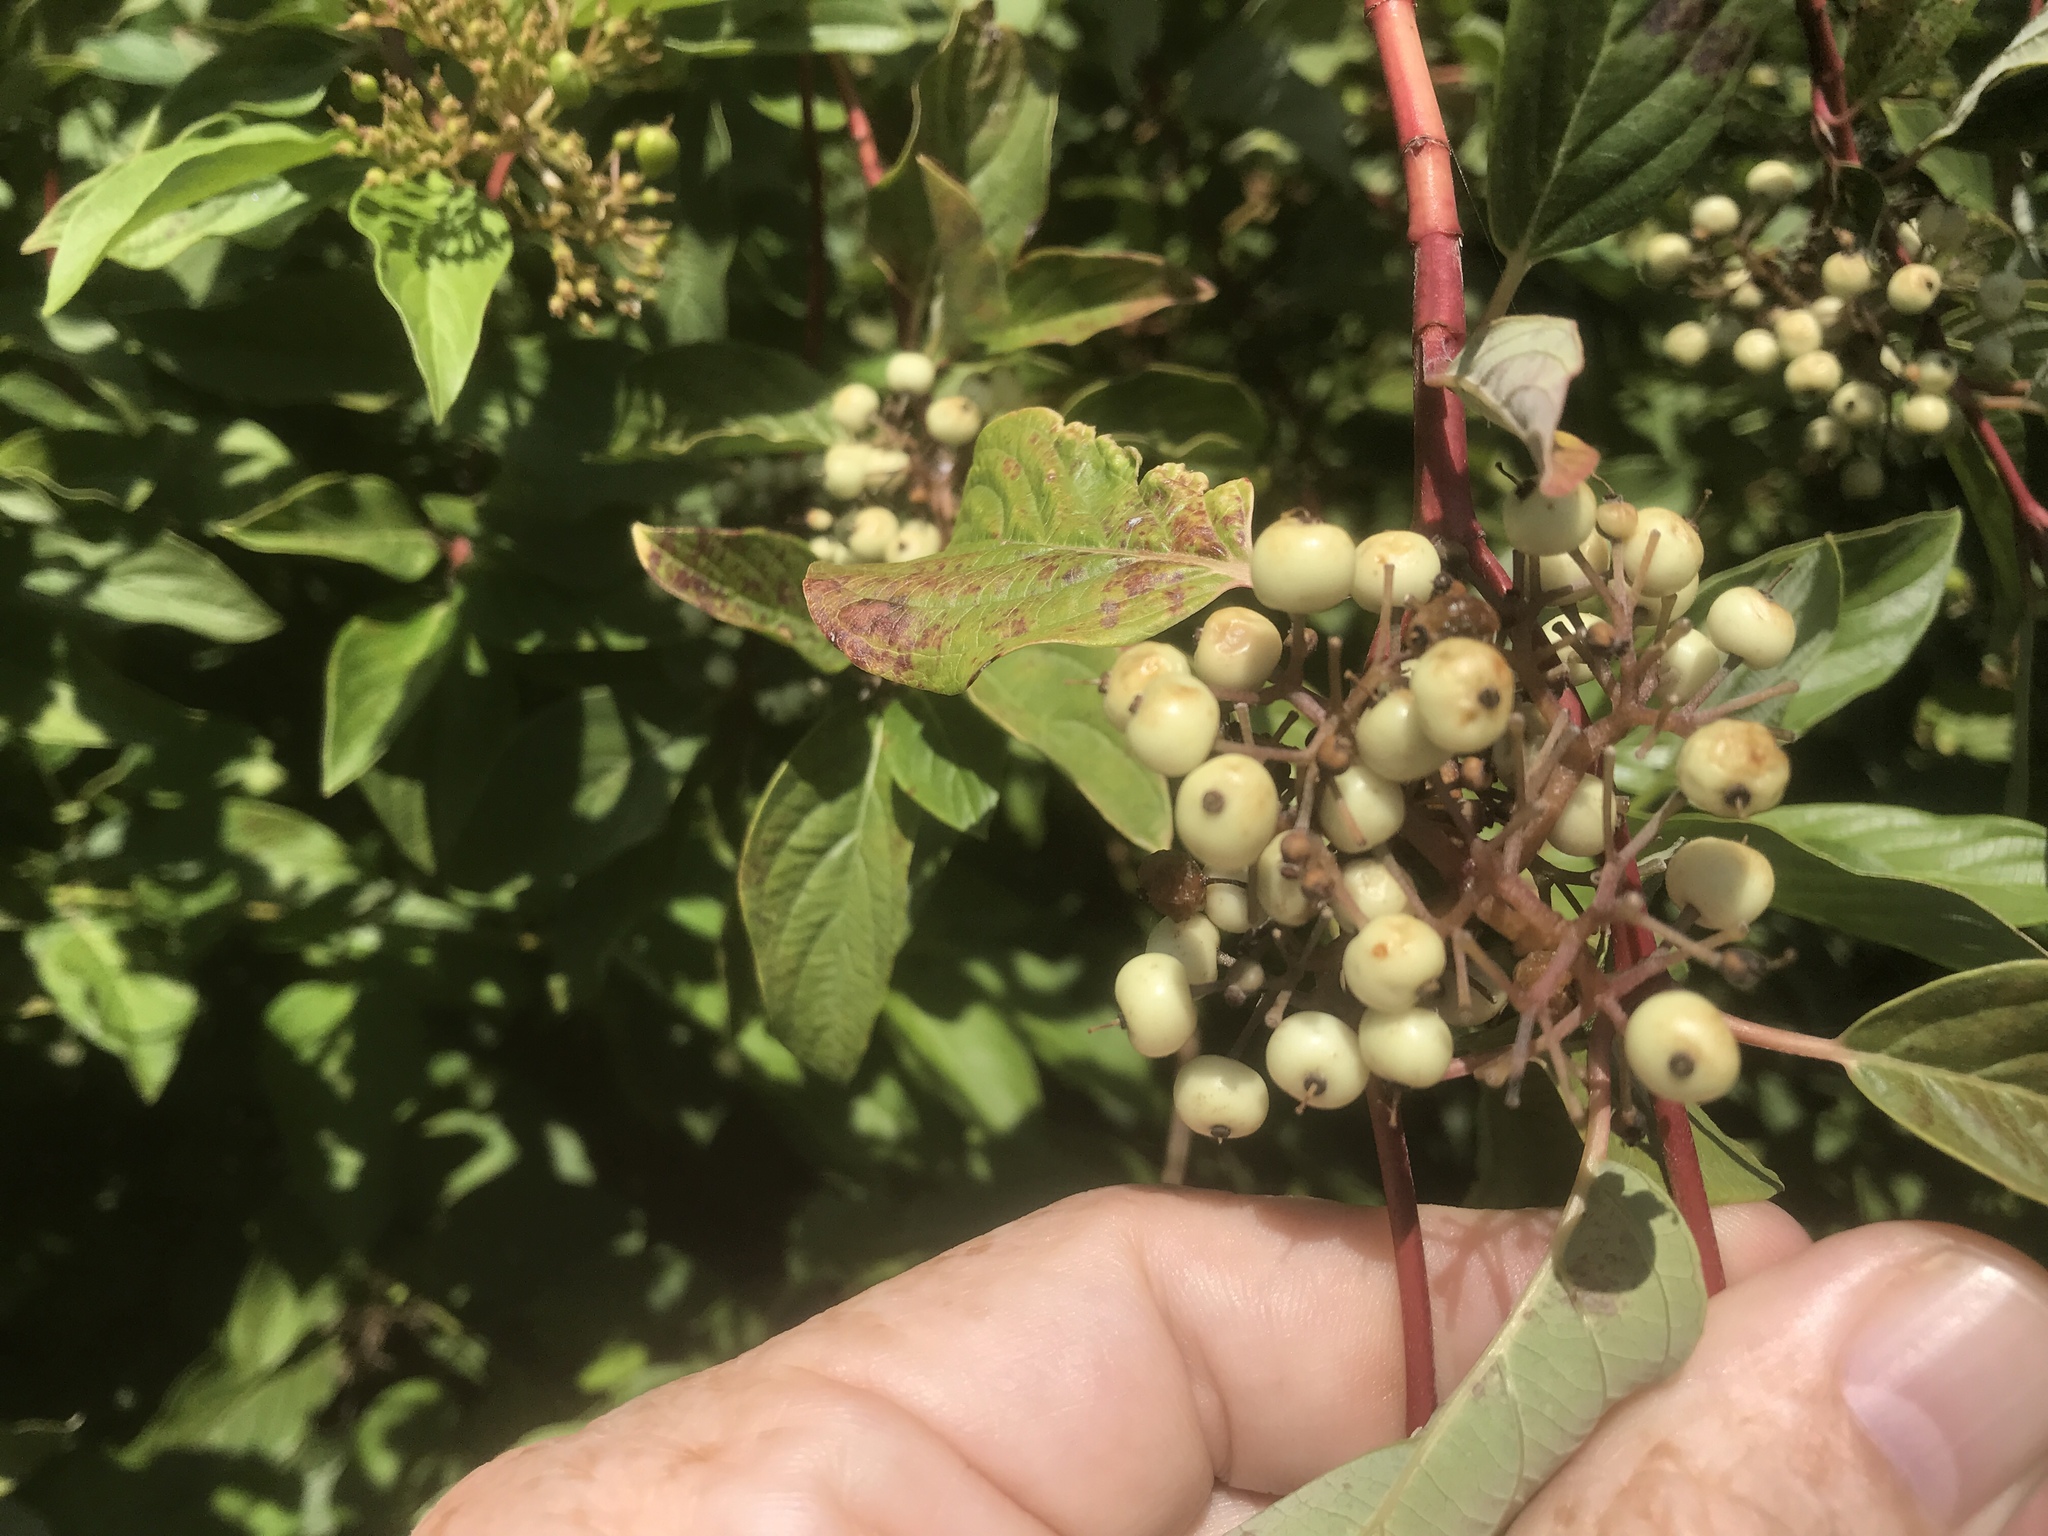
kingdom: Plantae
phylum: Tracheophyta
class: Magnoliopsida
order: Cornales
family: Cornaceae
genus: Cornus
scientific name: Cornus sericea
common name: Red-osier dogwood
